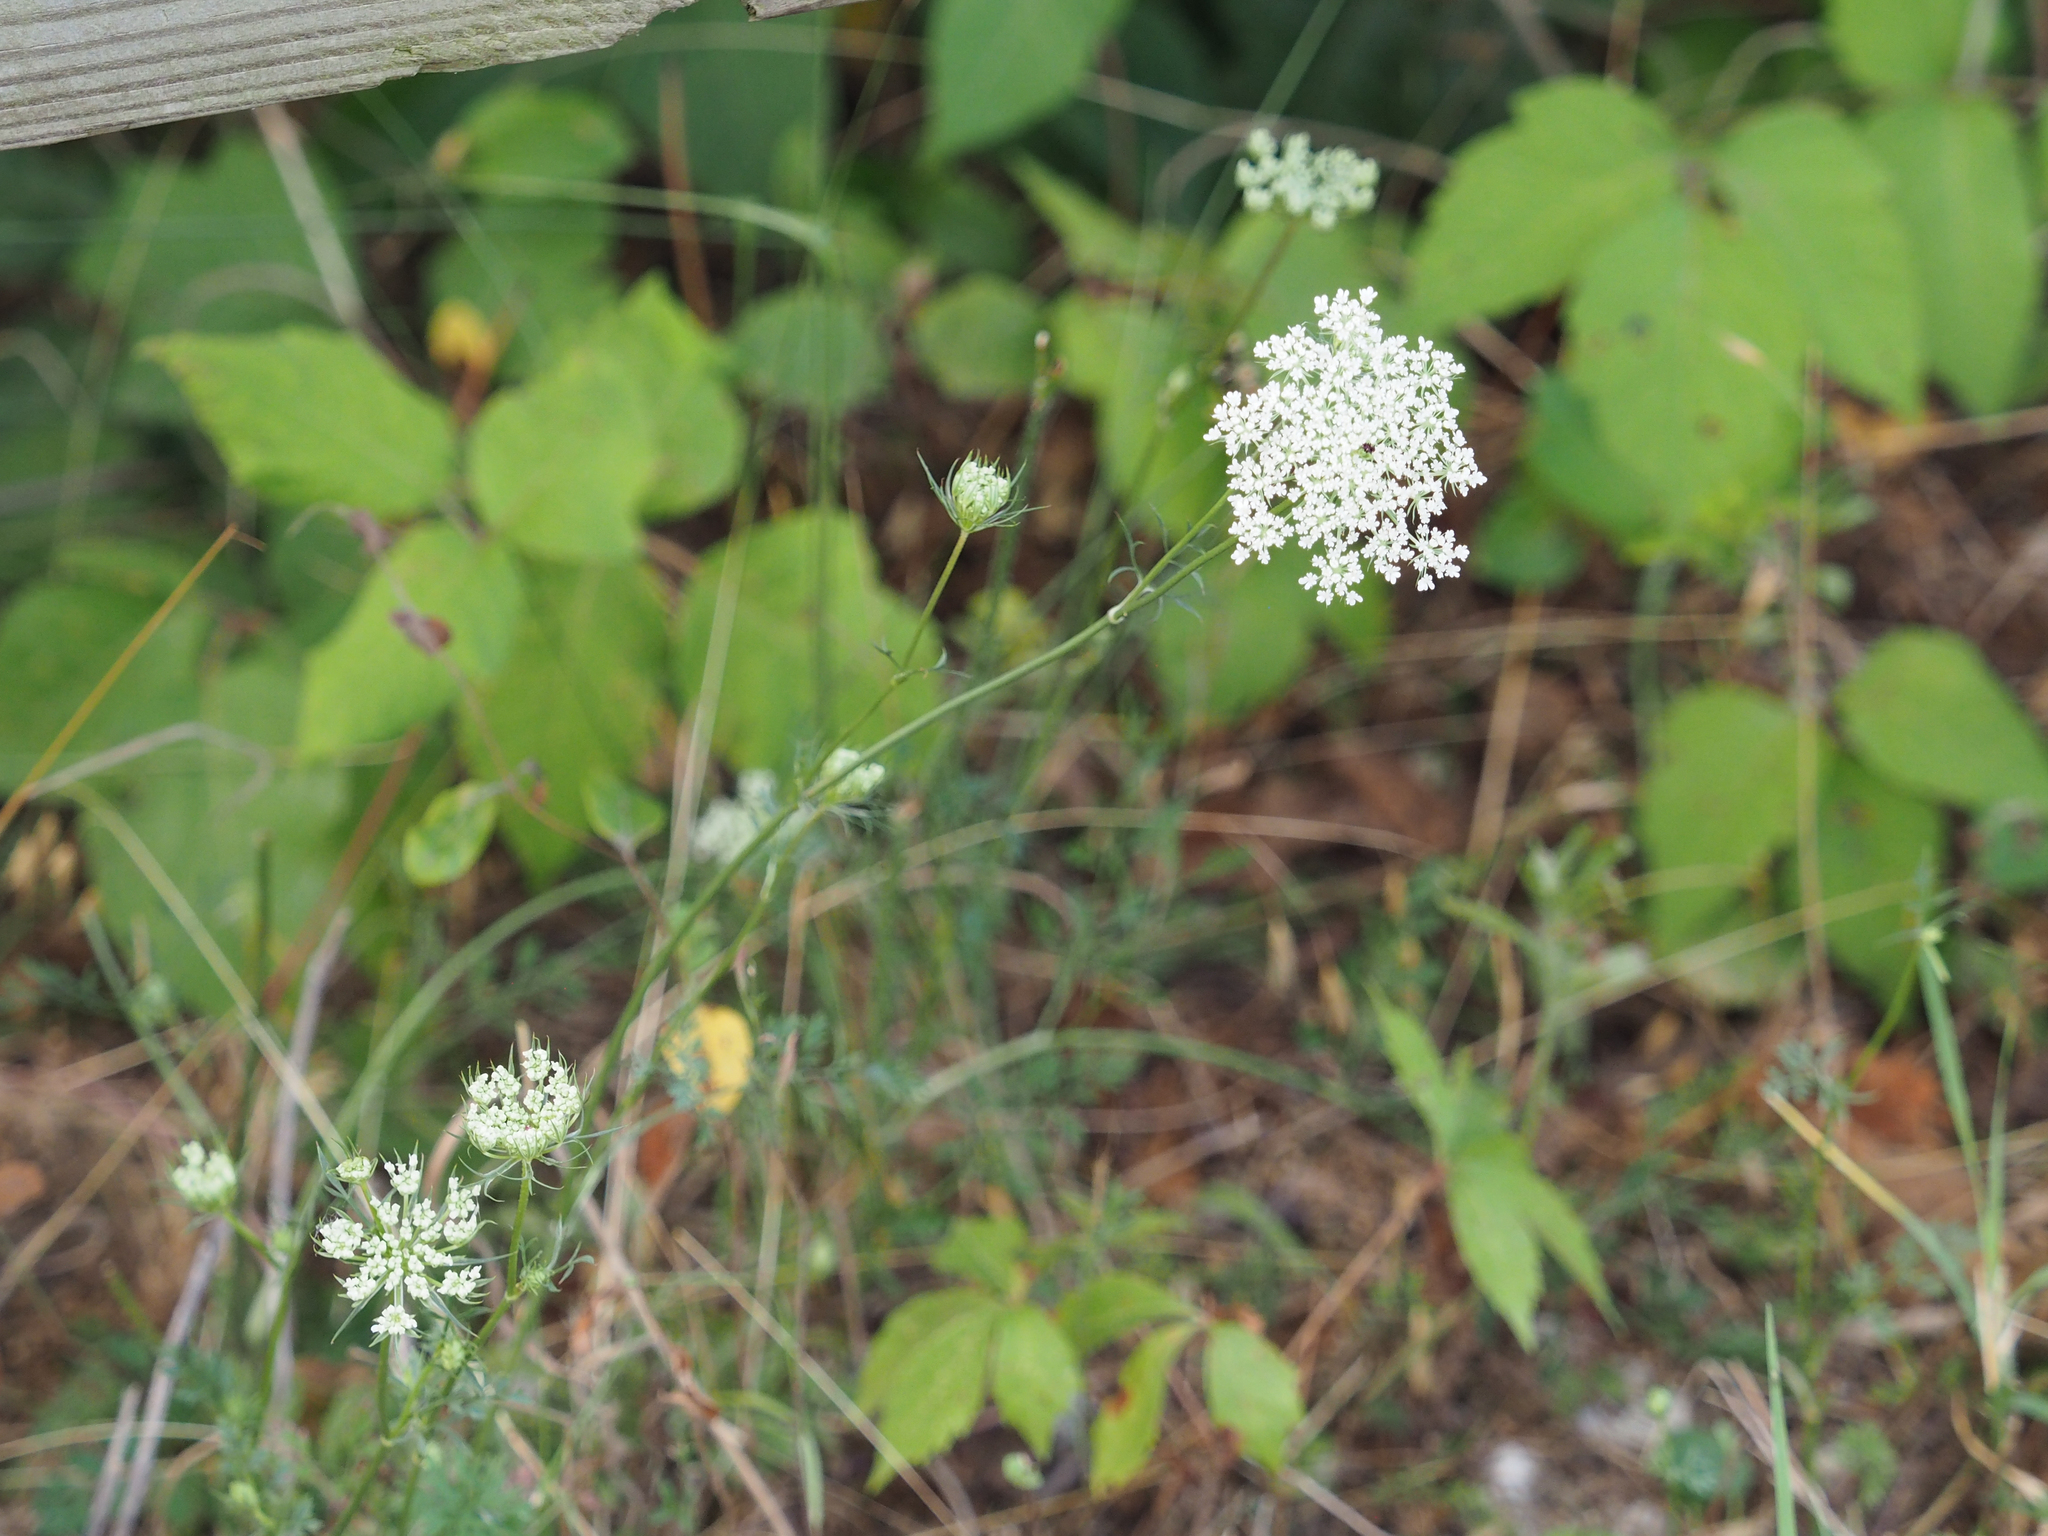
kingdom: Plantae
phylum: Tracheophyta
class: Magnoliopsida
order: Apiales
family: Apiaceae
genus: Daucus
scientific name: Daucus carota
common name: Wild carrot
